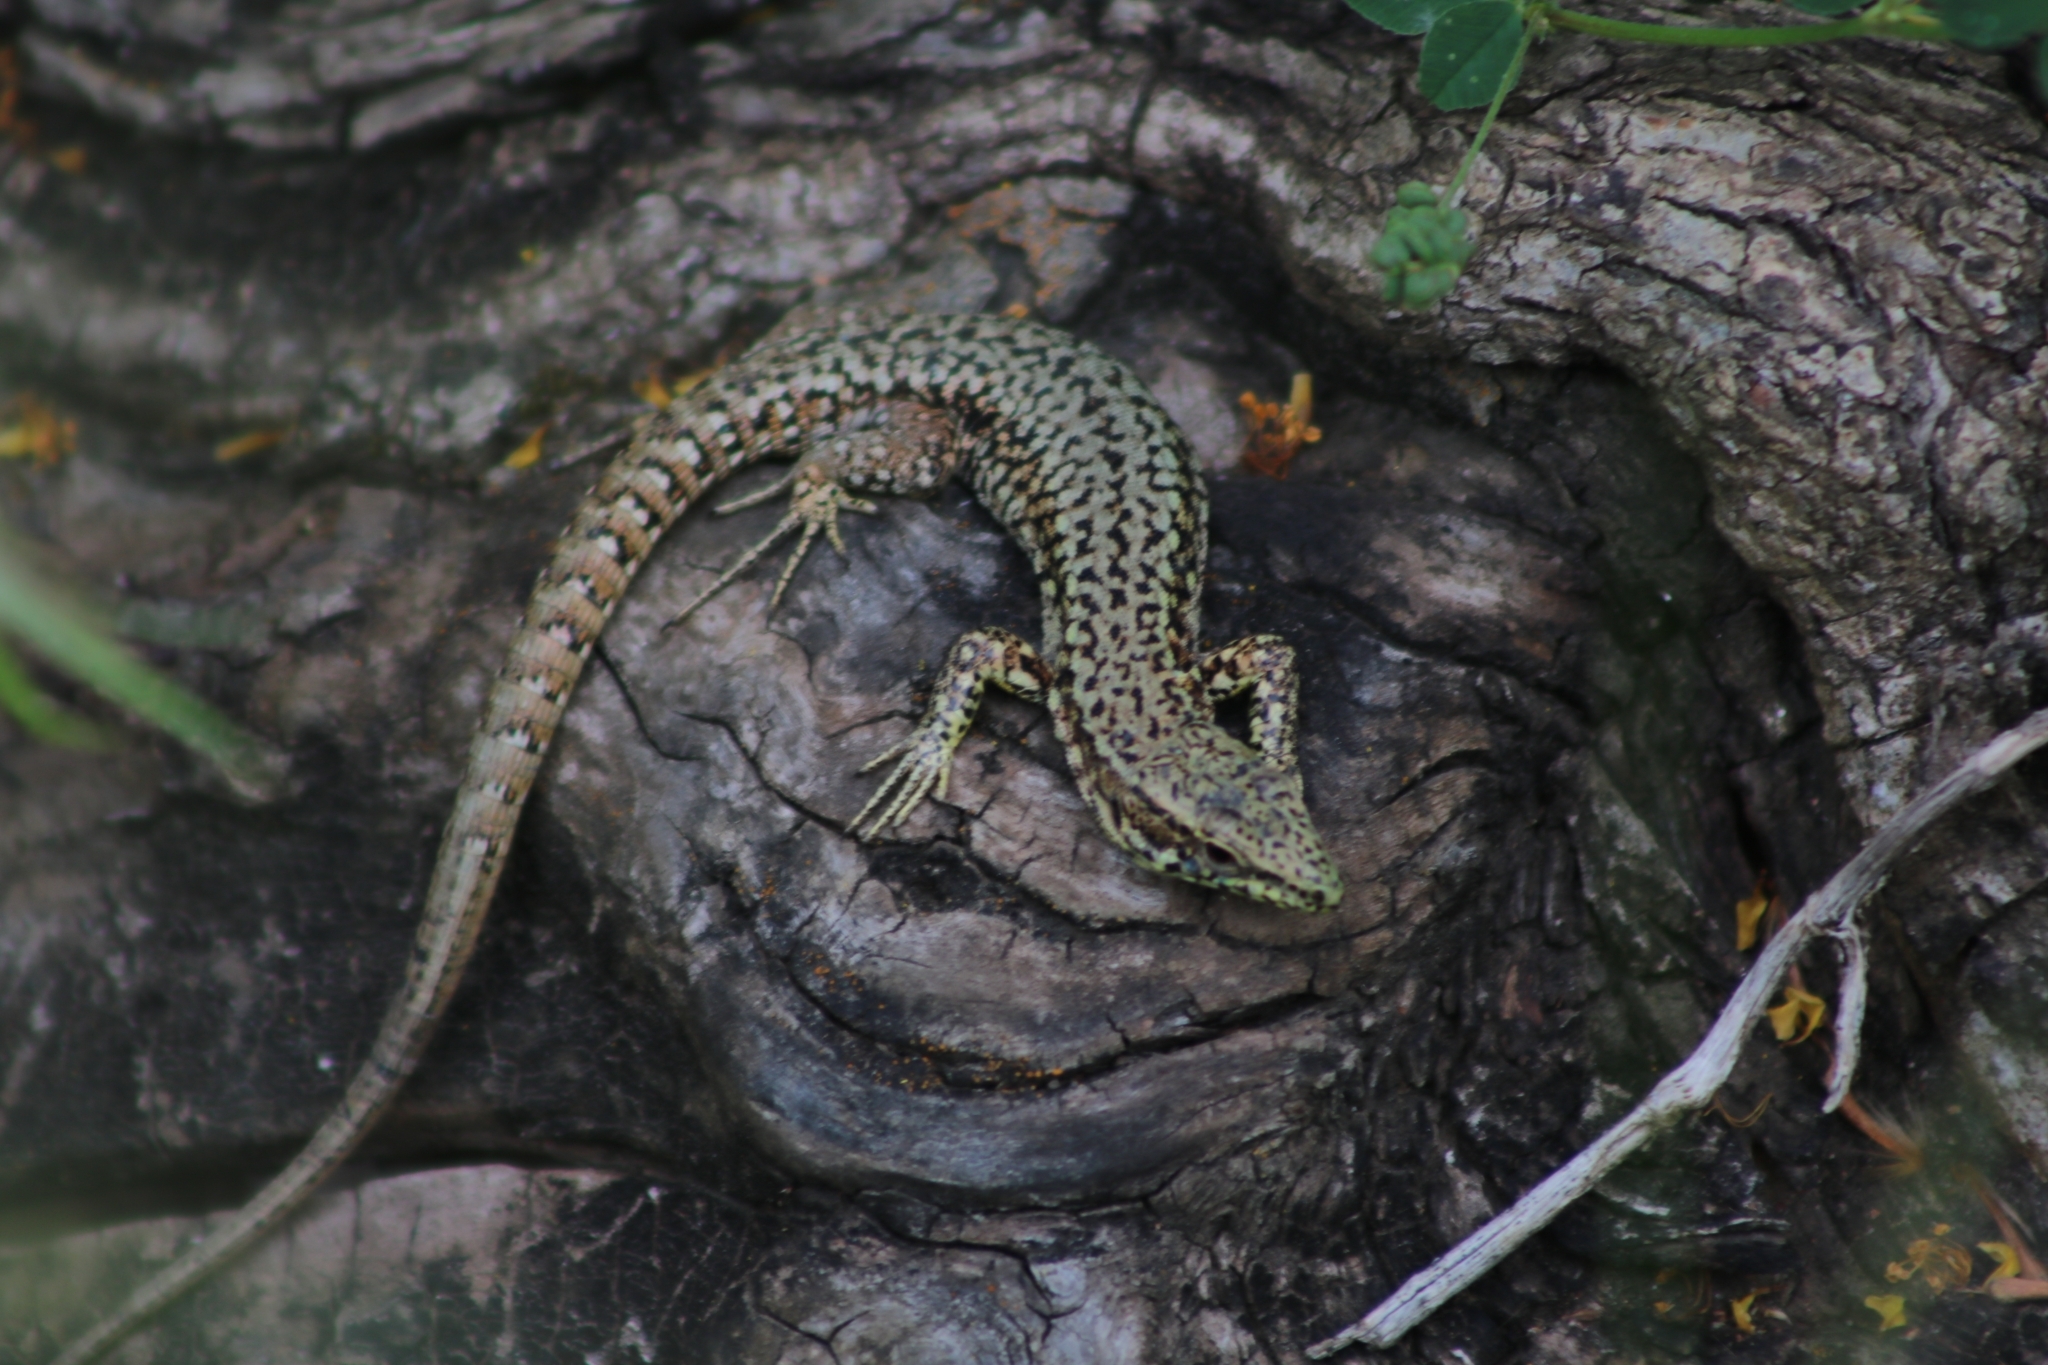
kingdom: Animalia
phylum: Chordata
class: Squamata
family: Lacertidae
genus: Podarcis
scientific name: Podarcis muralis
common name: Common wall lizard
